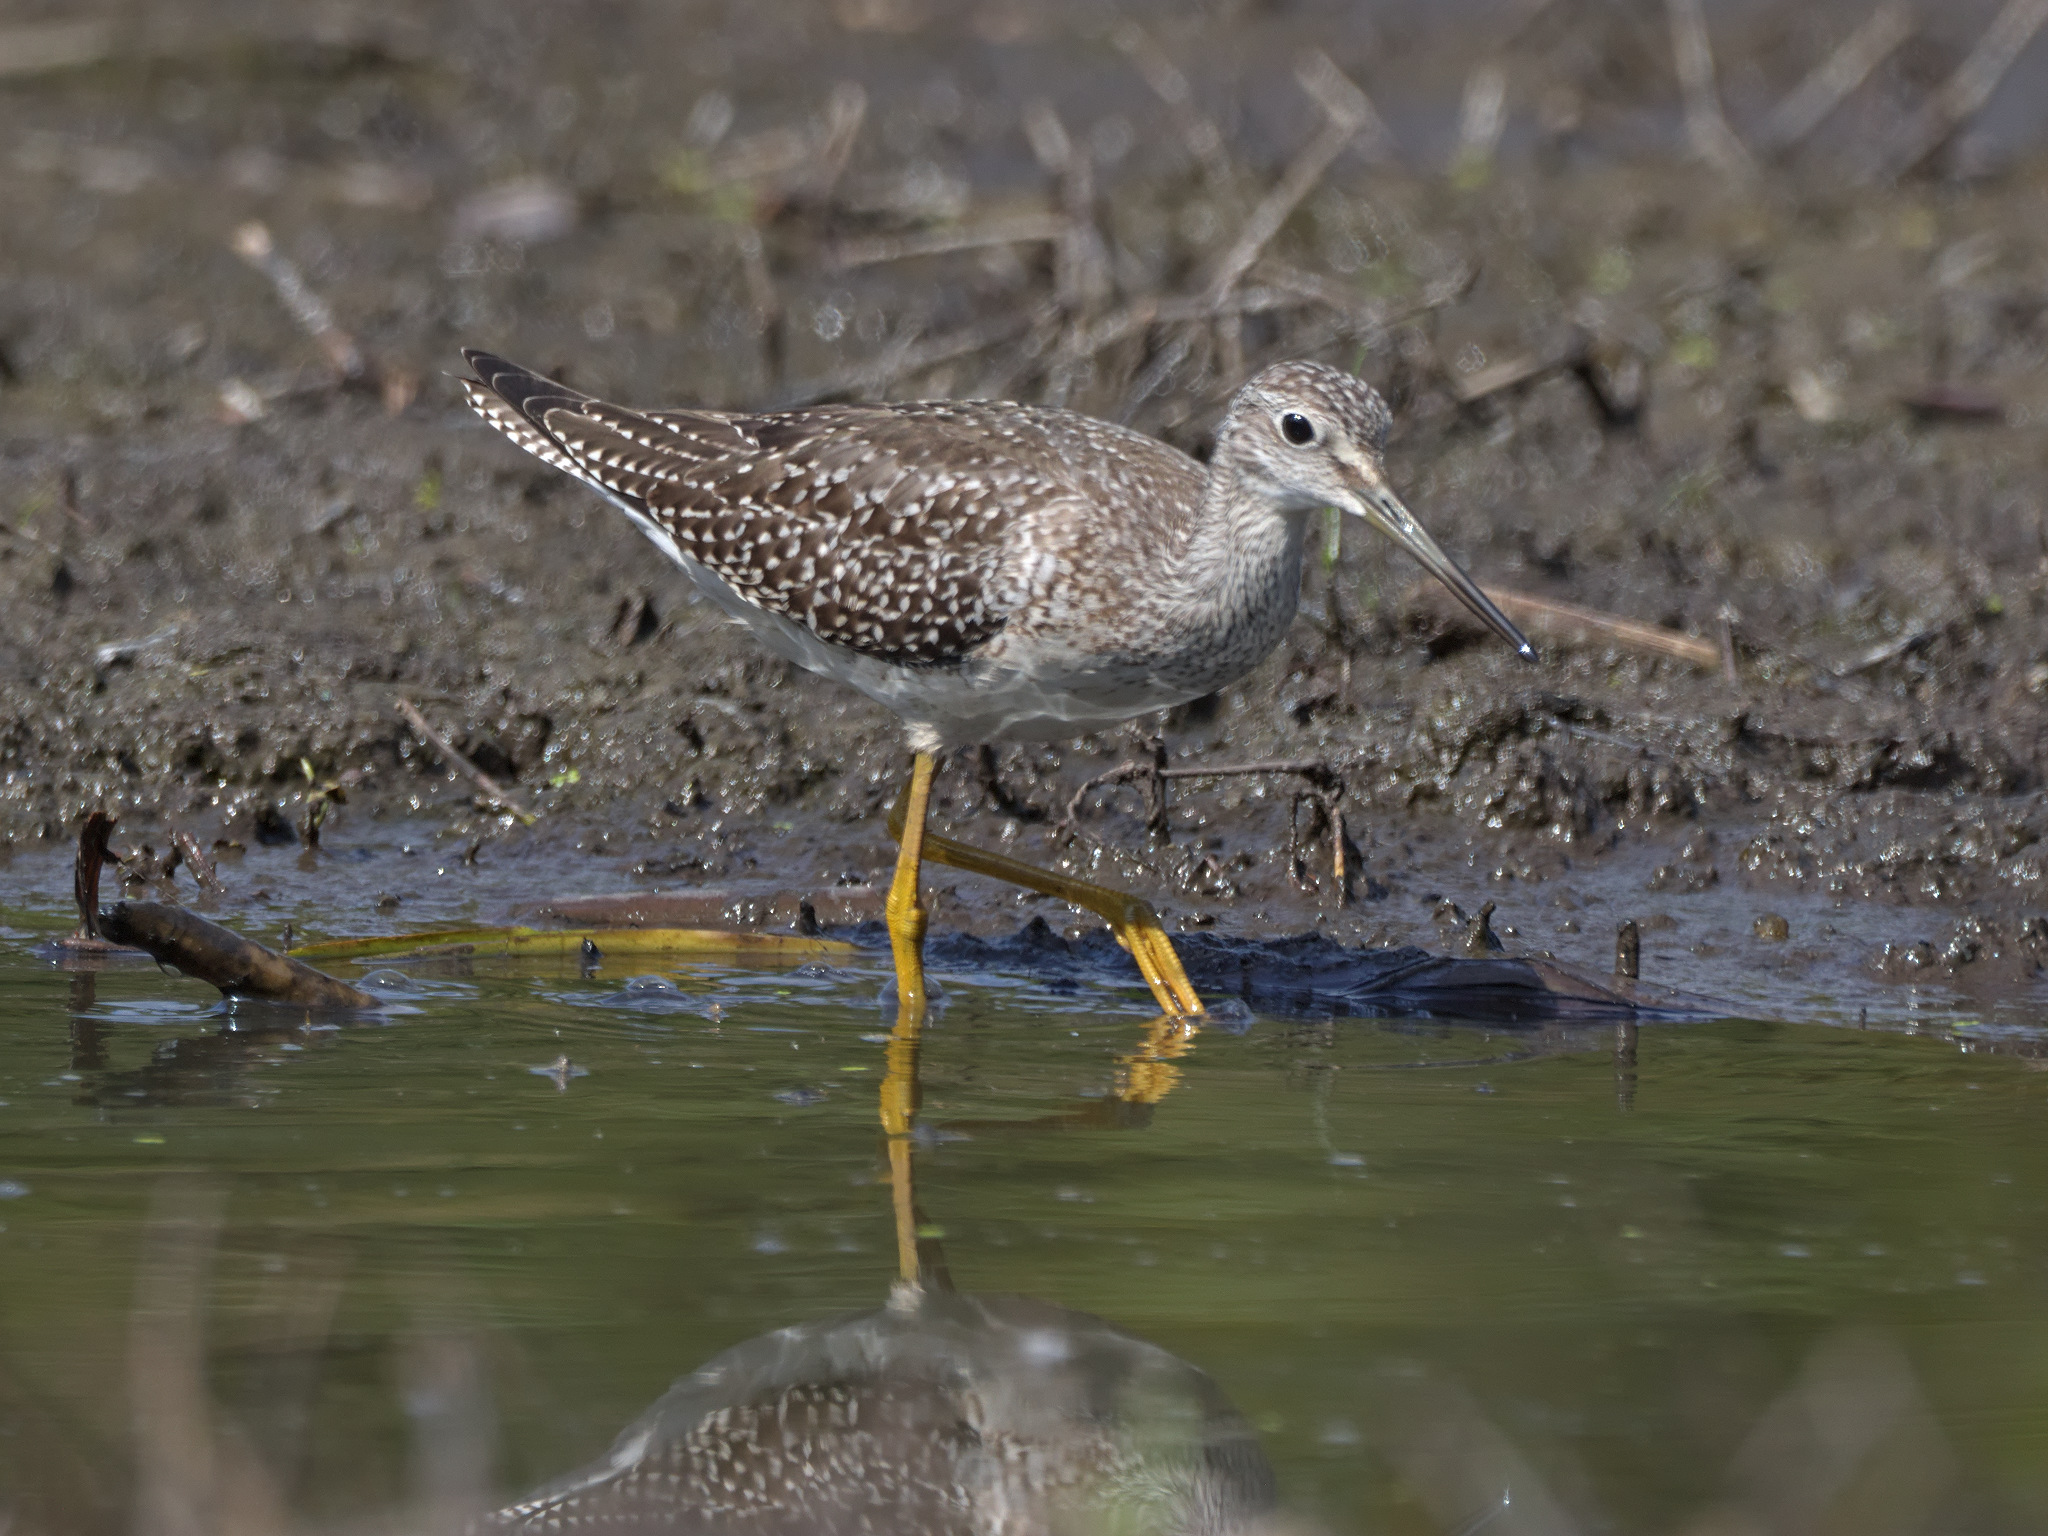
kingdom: Animalia
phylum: Chordata
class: Aves
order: Charadriiformes
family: Scolopacidae
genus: Tringa
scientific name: Tringa melanoleuca
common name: Greater yellowlegs
